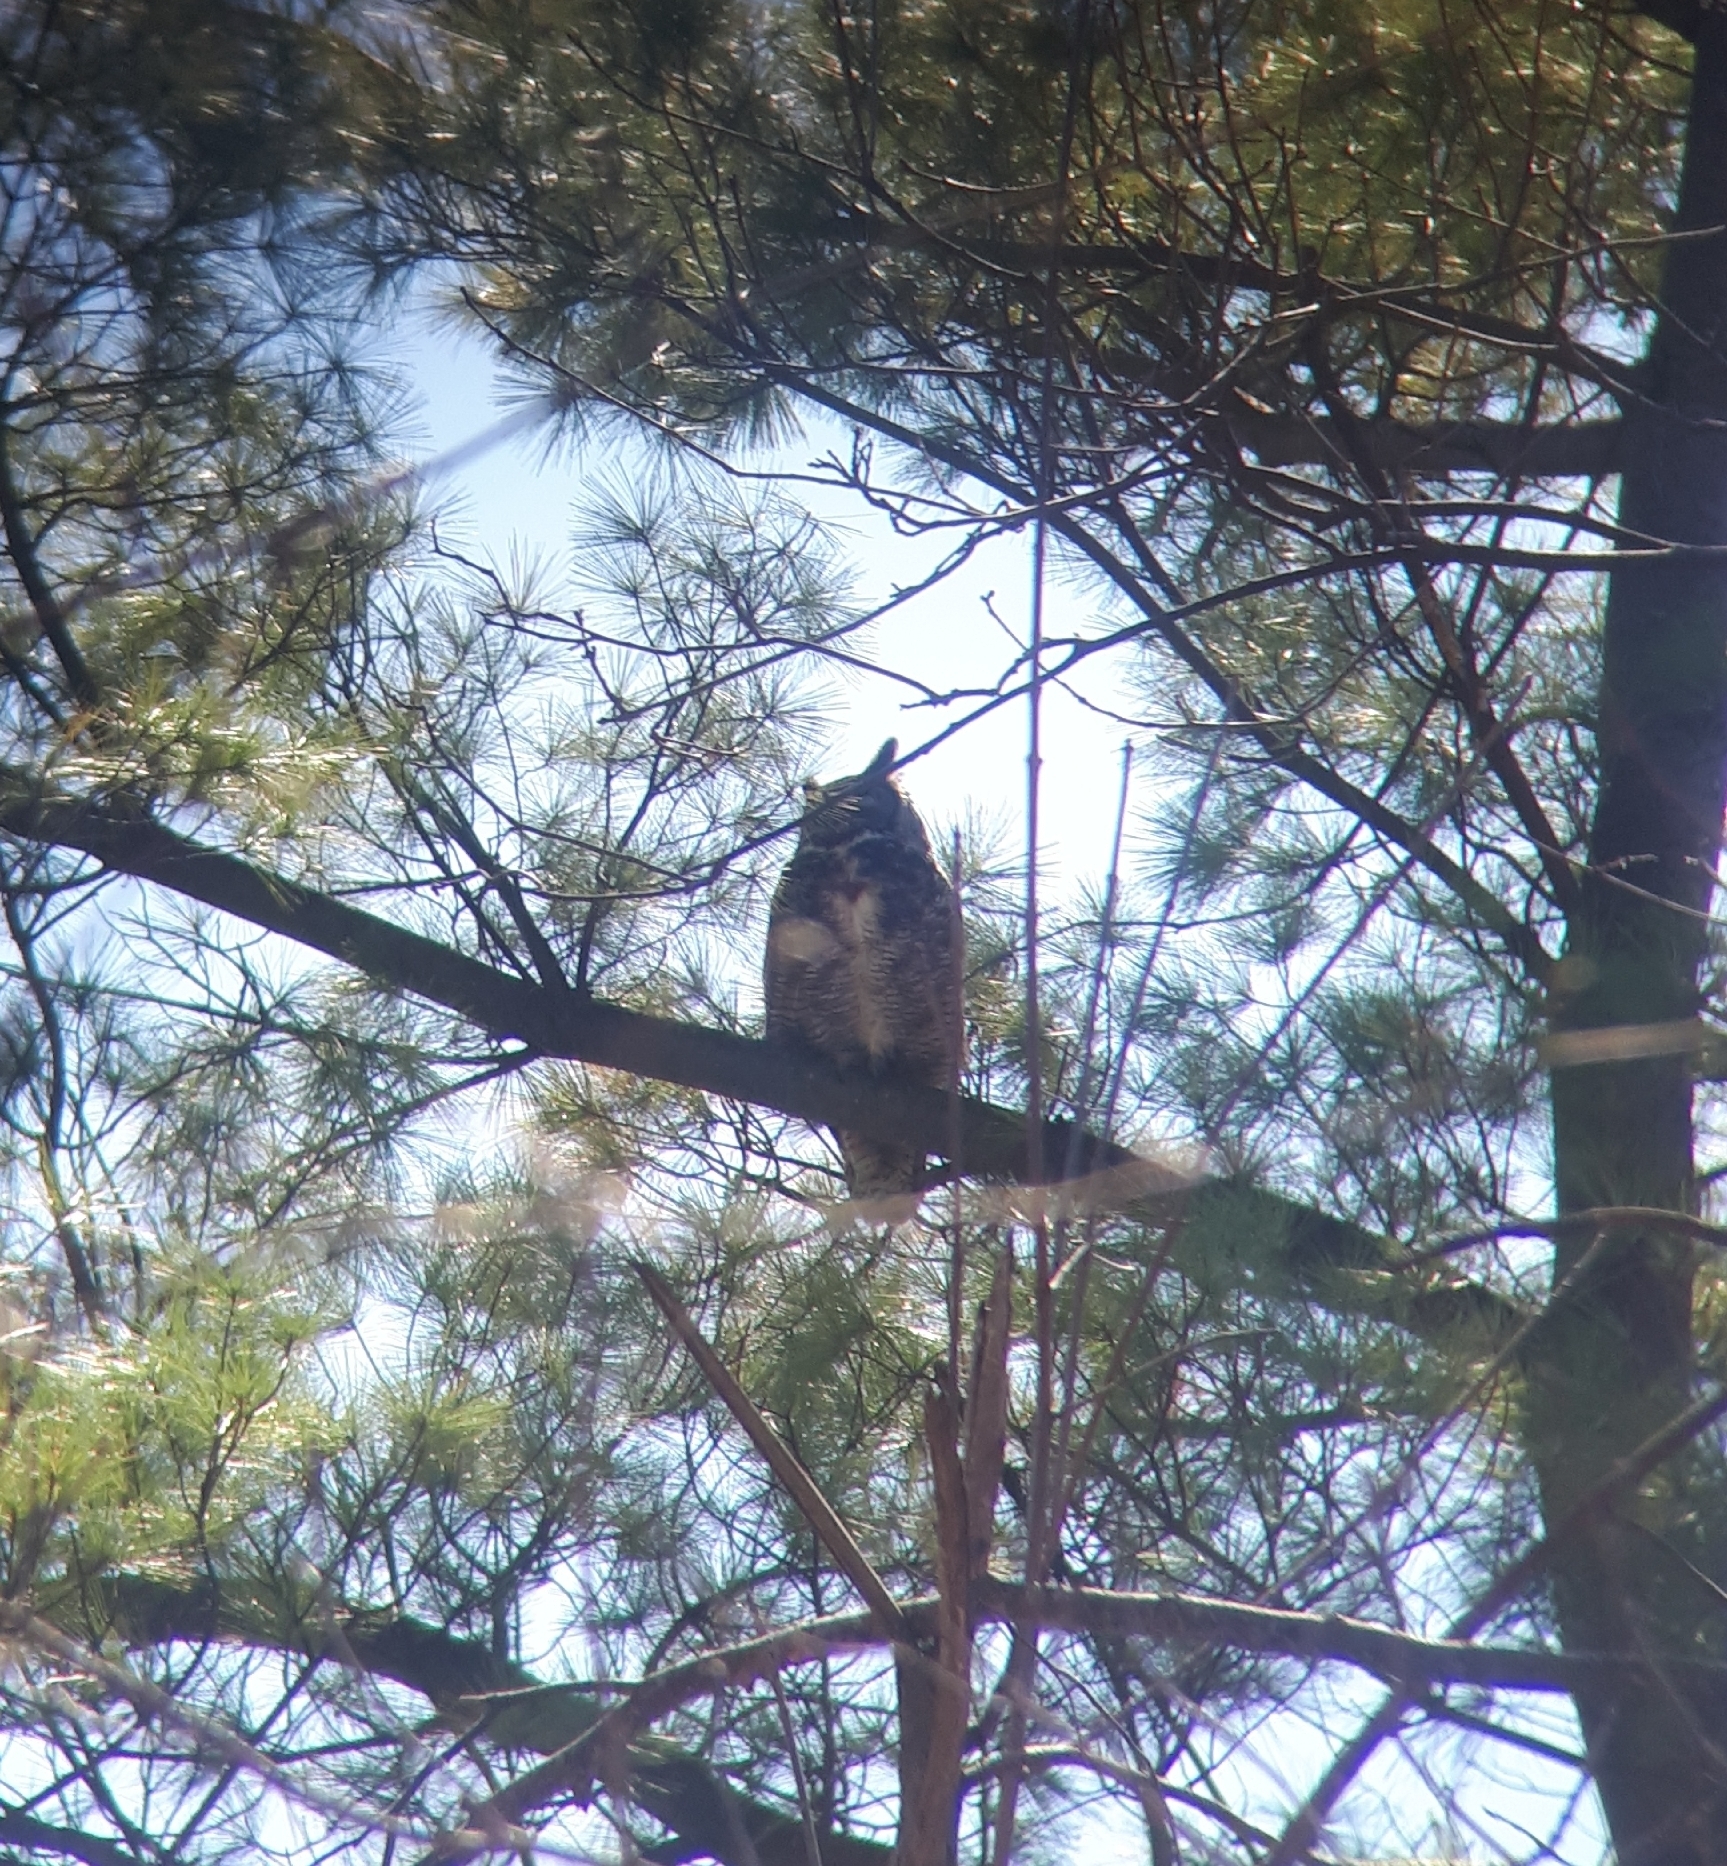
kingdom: Animalia
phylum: Chordata
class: Aves
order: Strigiformes
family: Strigidae
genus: Bubo
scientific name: Bubo virginianus
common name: Great horned owl
